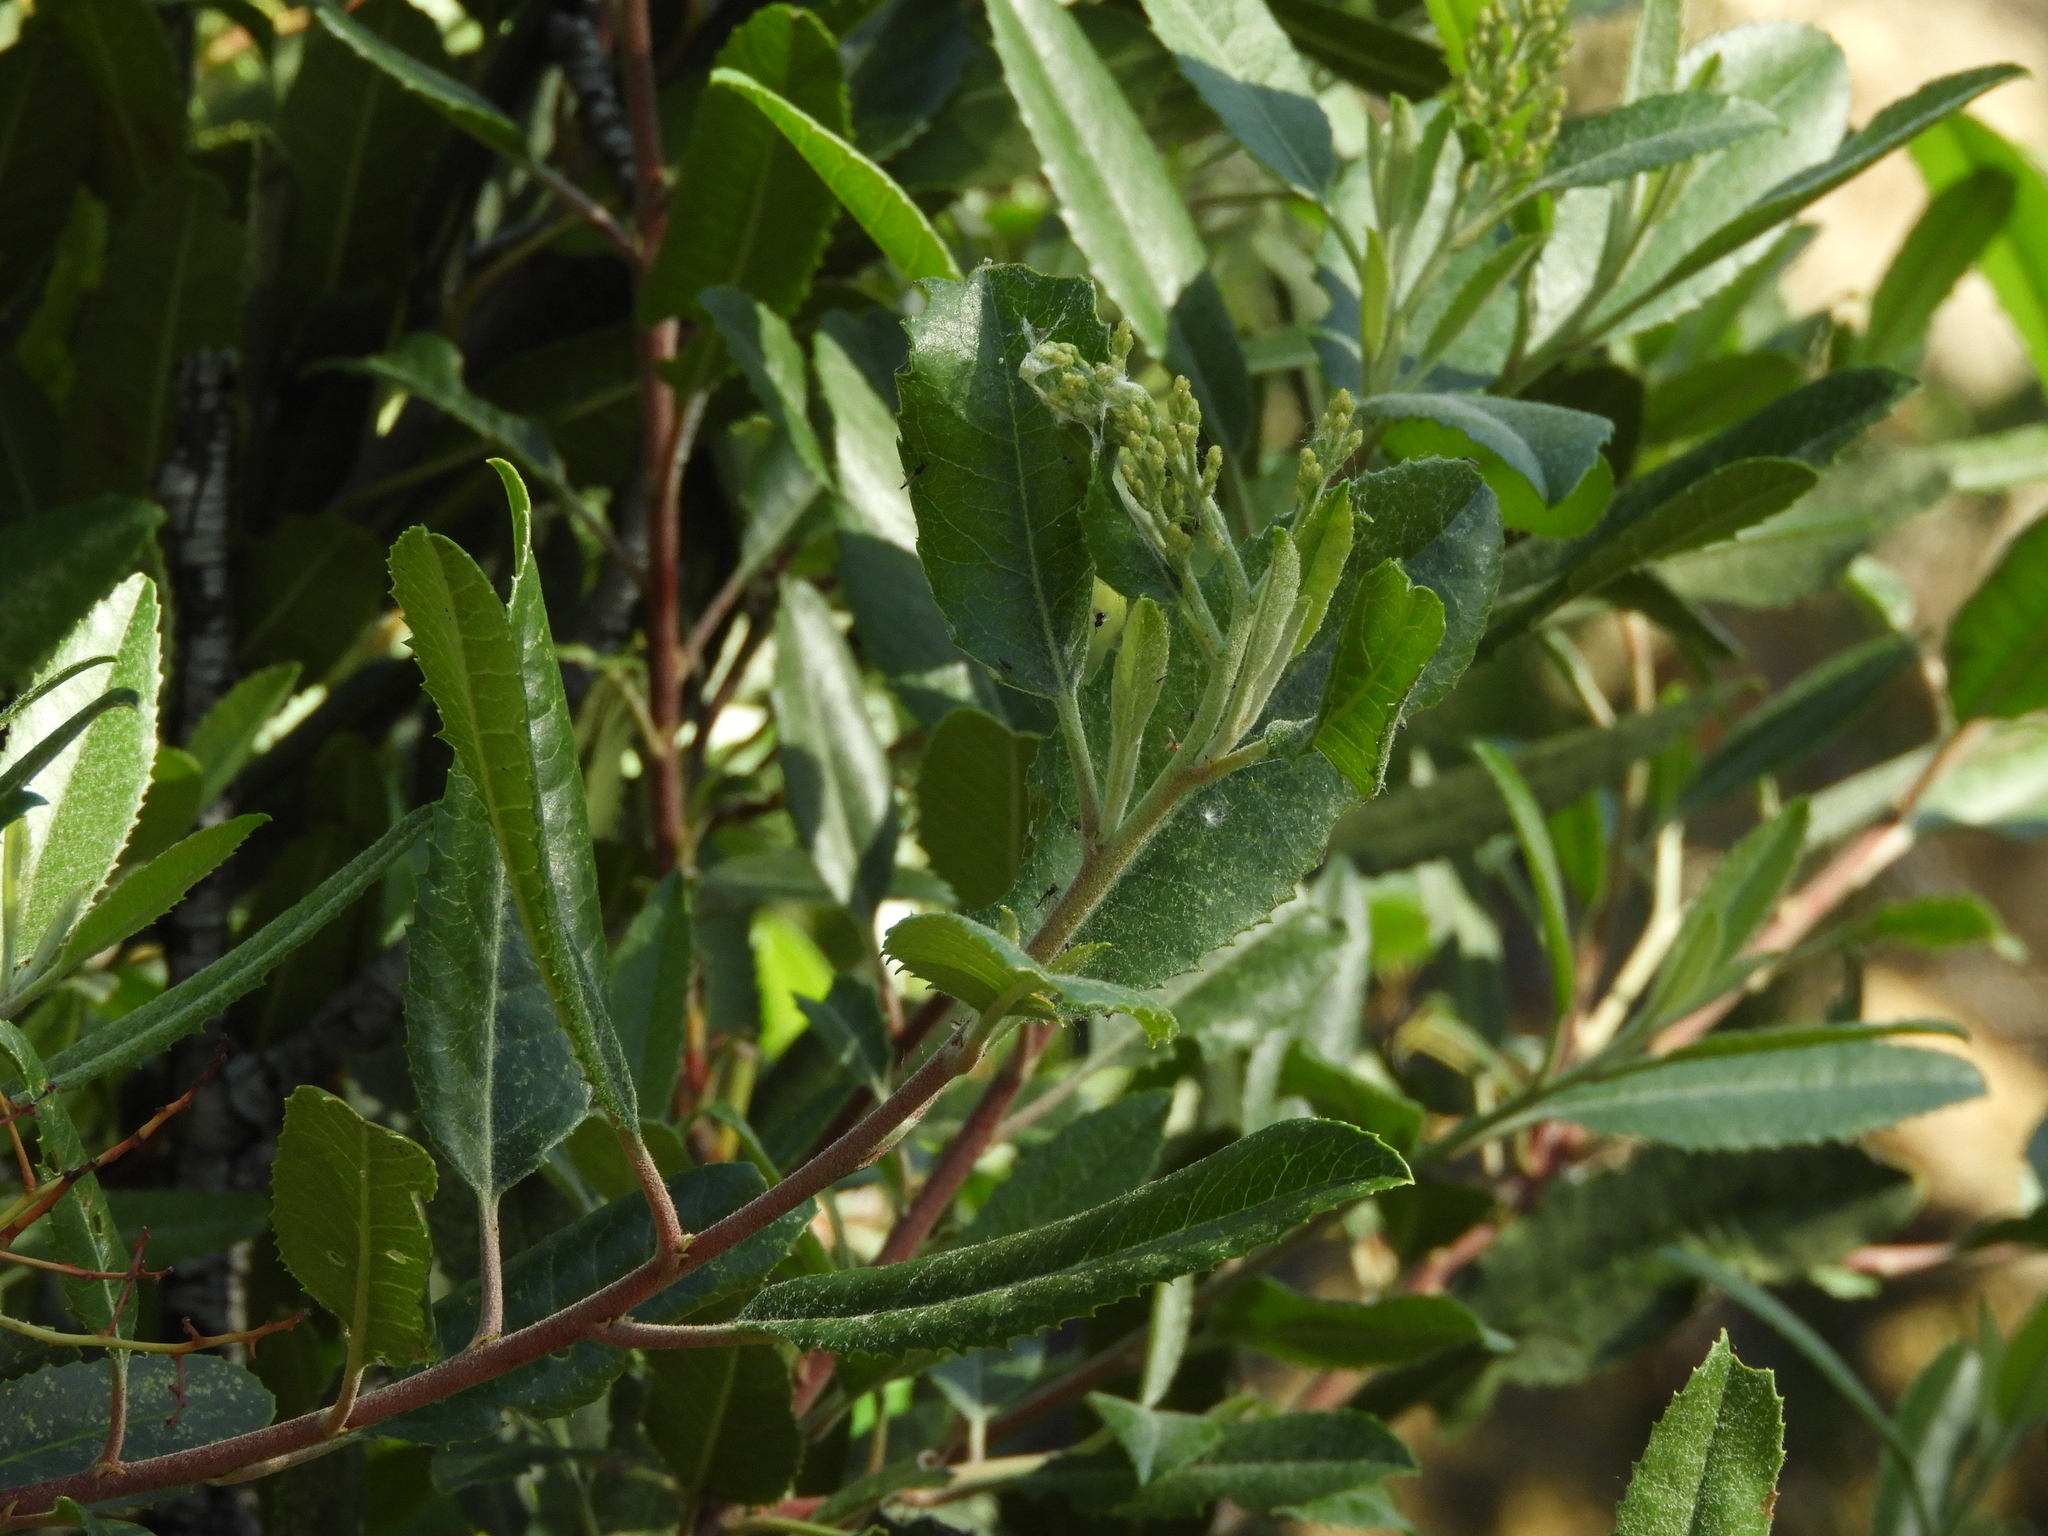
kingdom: Plantae
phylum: Tracheophyta
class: Magnoliopsida
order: Rosales
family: Rosaceae
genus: Heteromeles
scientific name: Heteromeles arbutifolia
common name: California-holly
